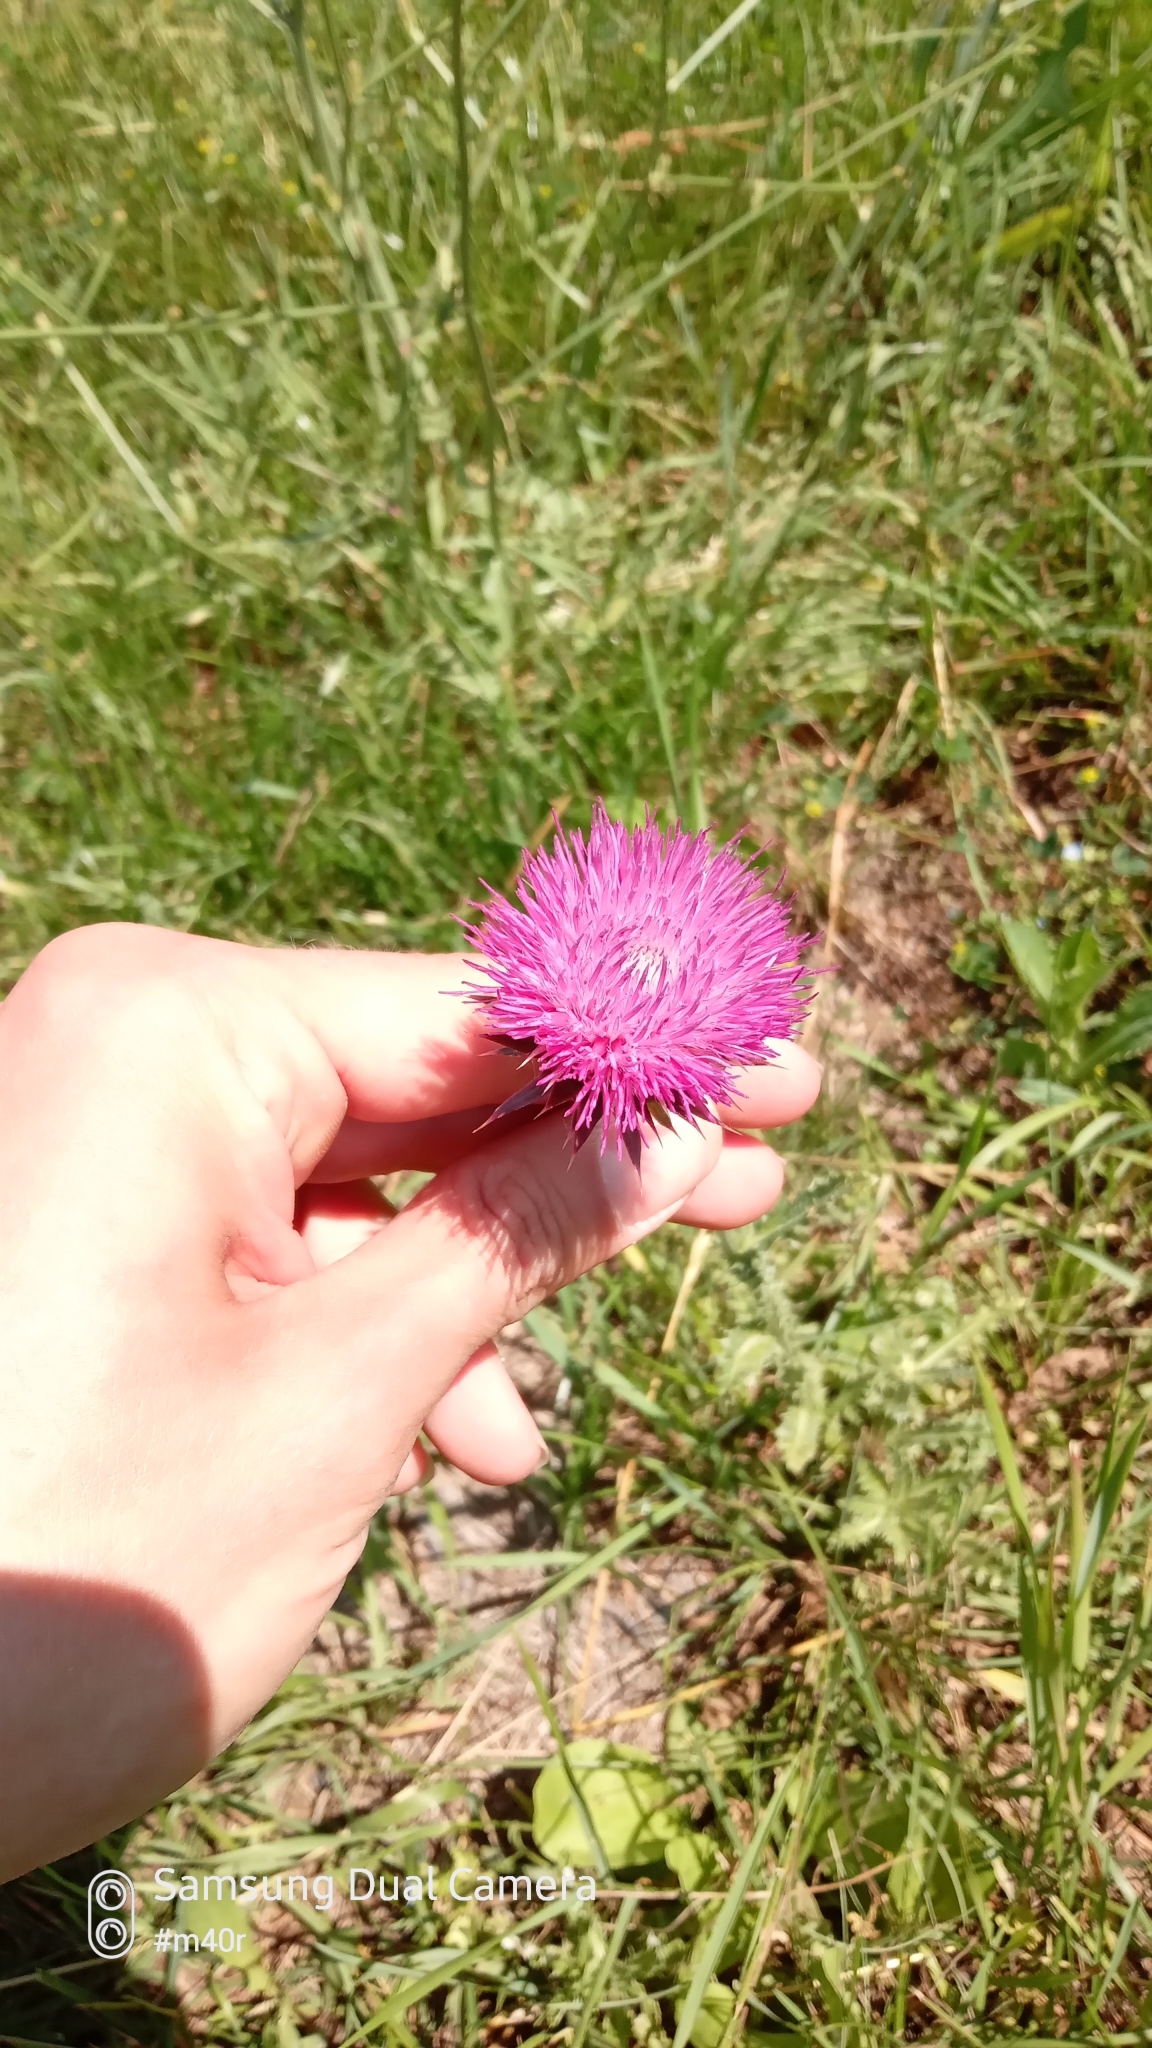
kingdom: Plantae
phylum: Tracheophyta
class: Magnoliopsida
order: Asterales
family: Asteraceae
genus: Carduus
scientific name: Carduus nutans
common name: Musk thistle
